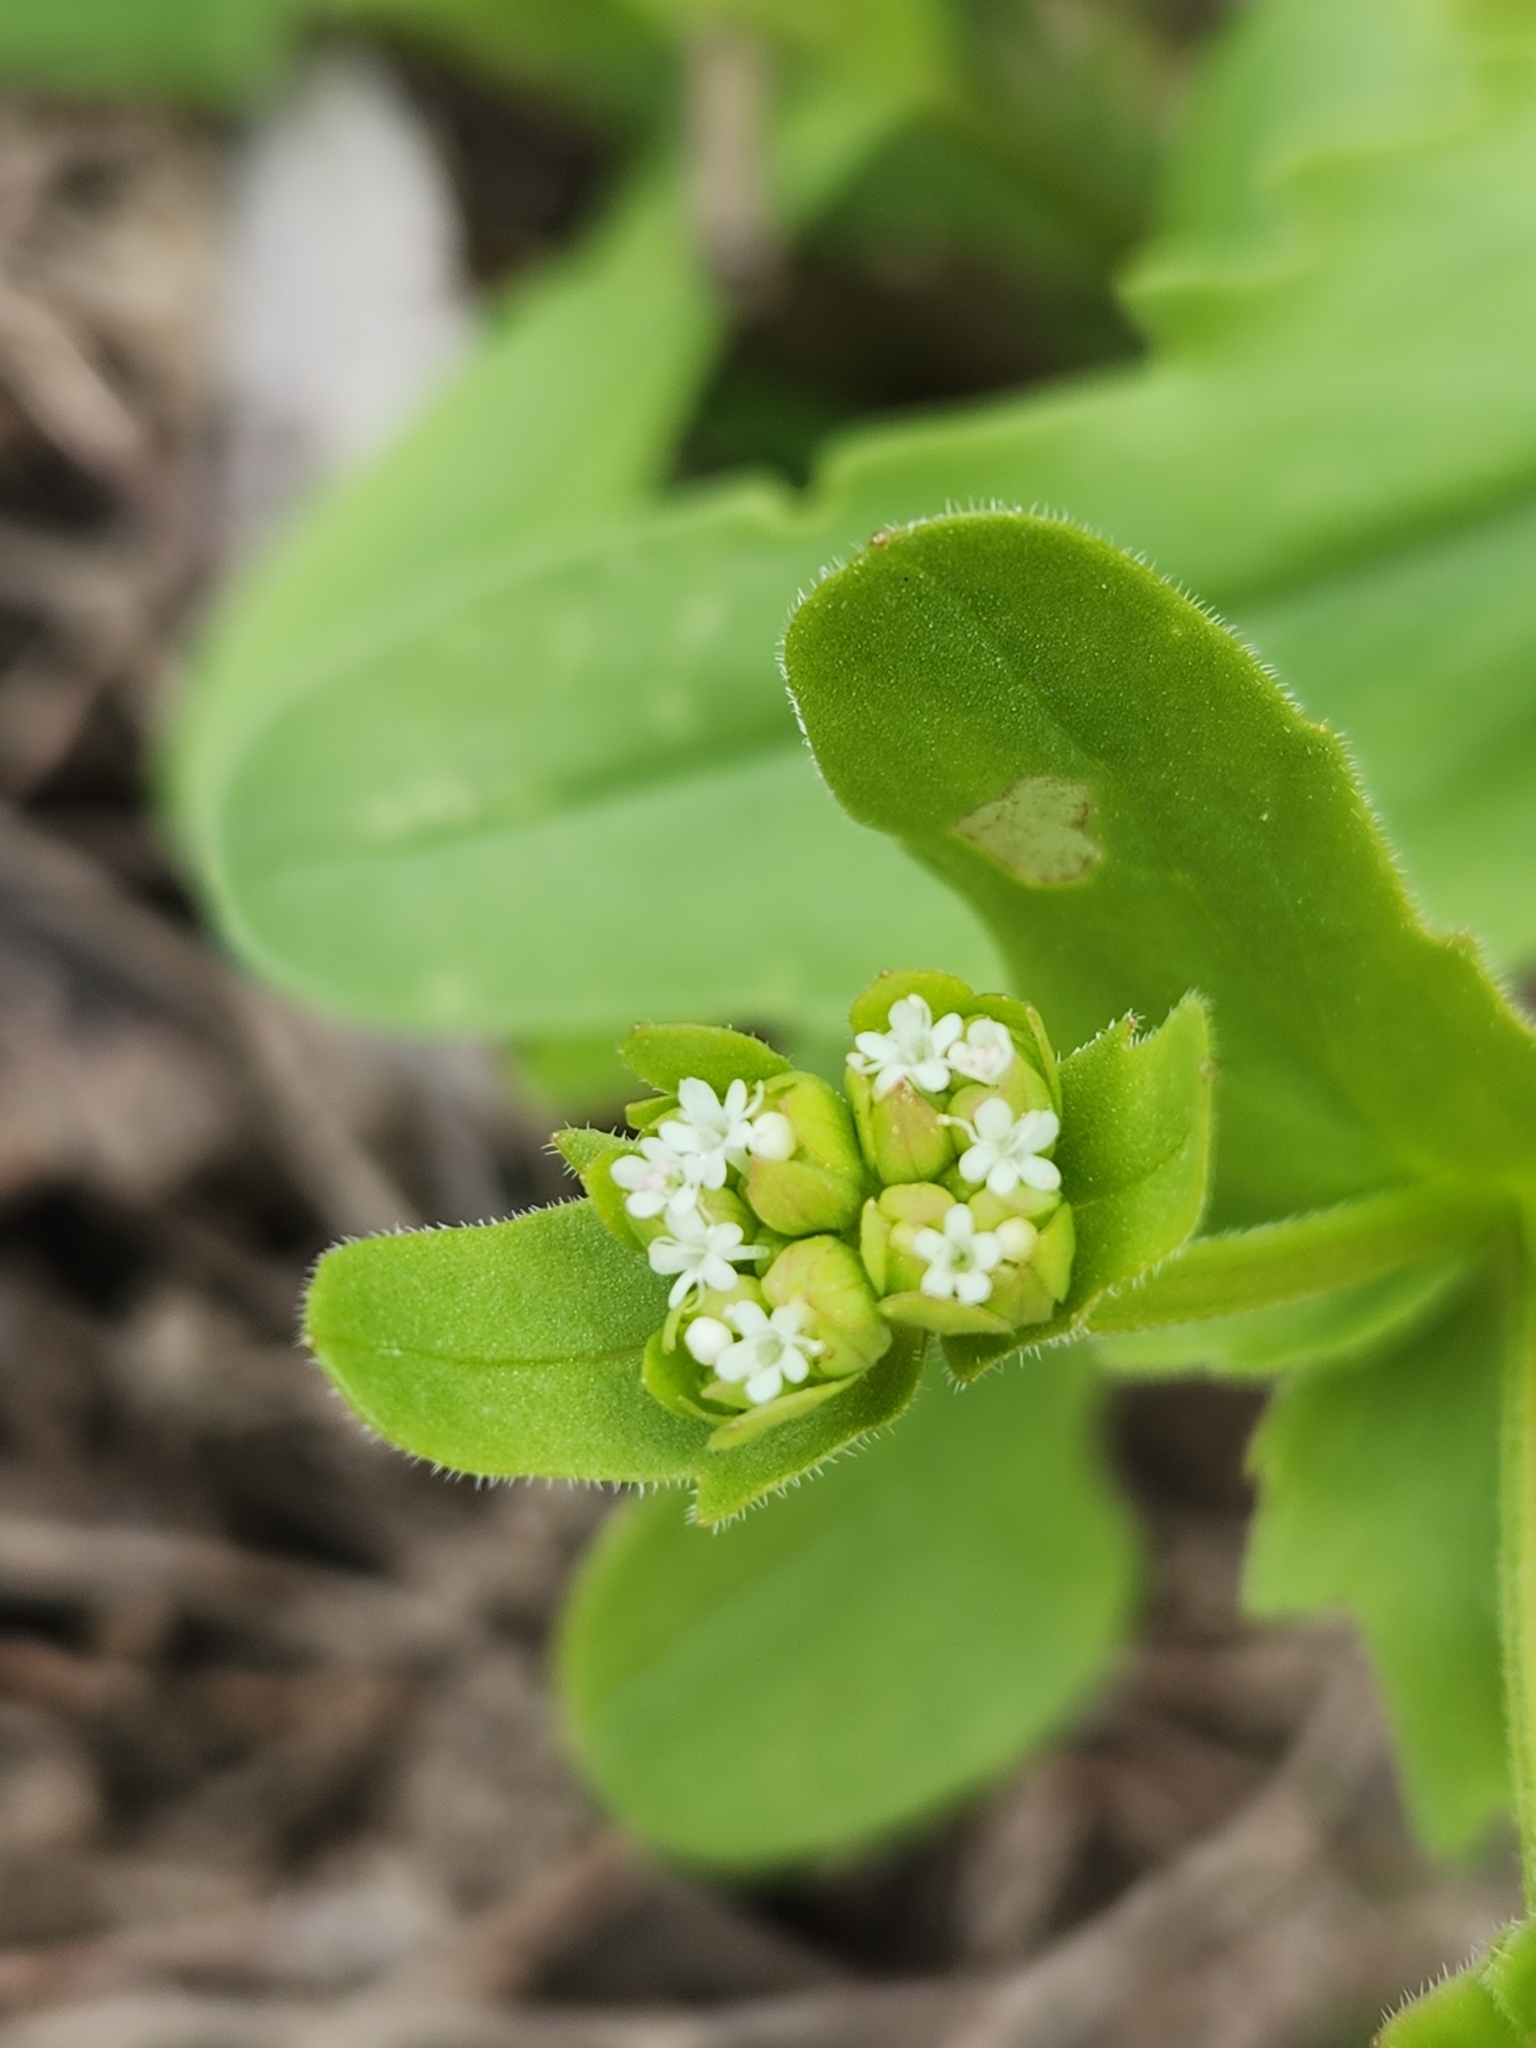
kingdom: Plantae
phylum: Tracheophyta
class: Magnoliopsida
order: Dipsacales
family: Caprifoliaceae
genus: Valerianella
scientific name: Valerianella radiata
